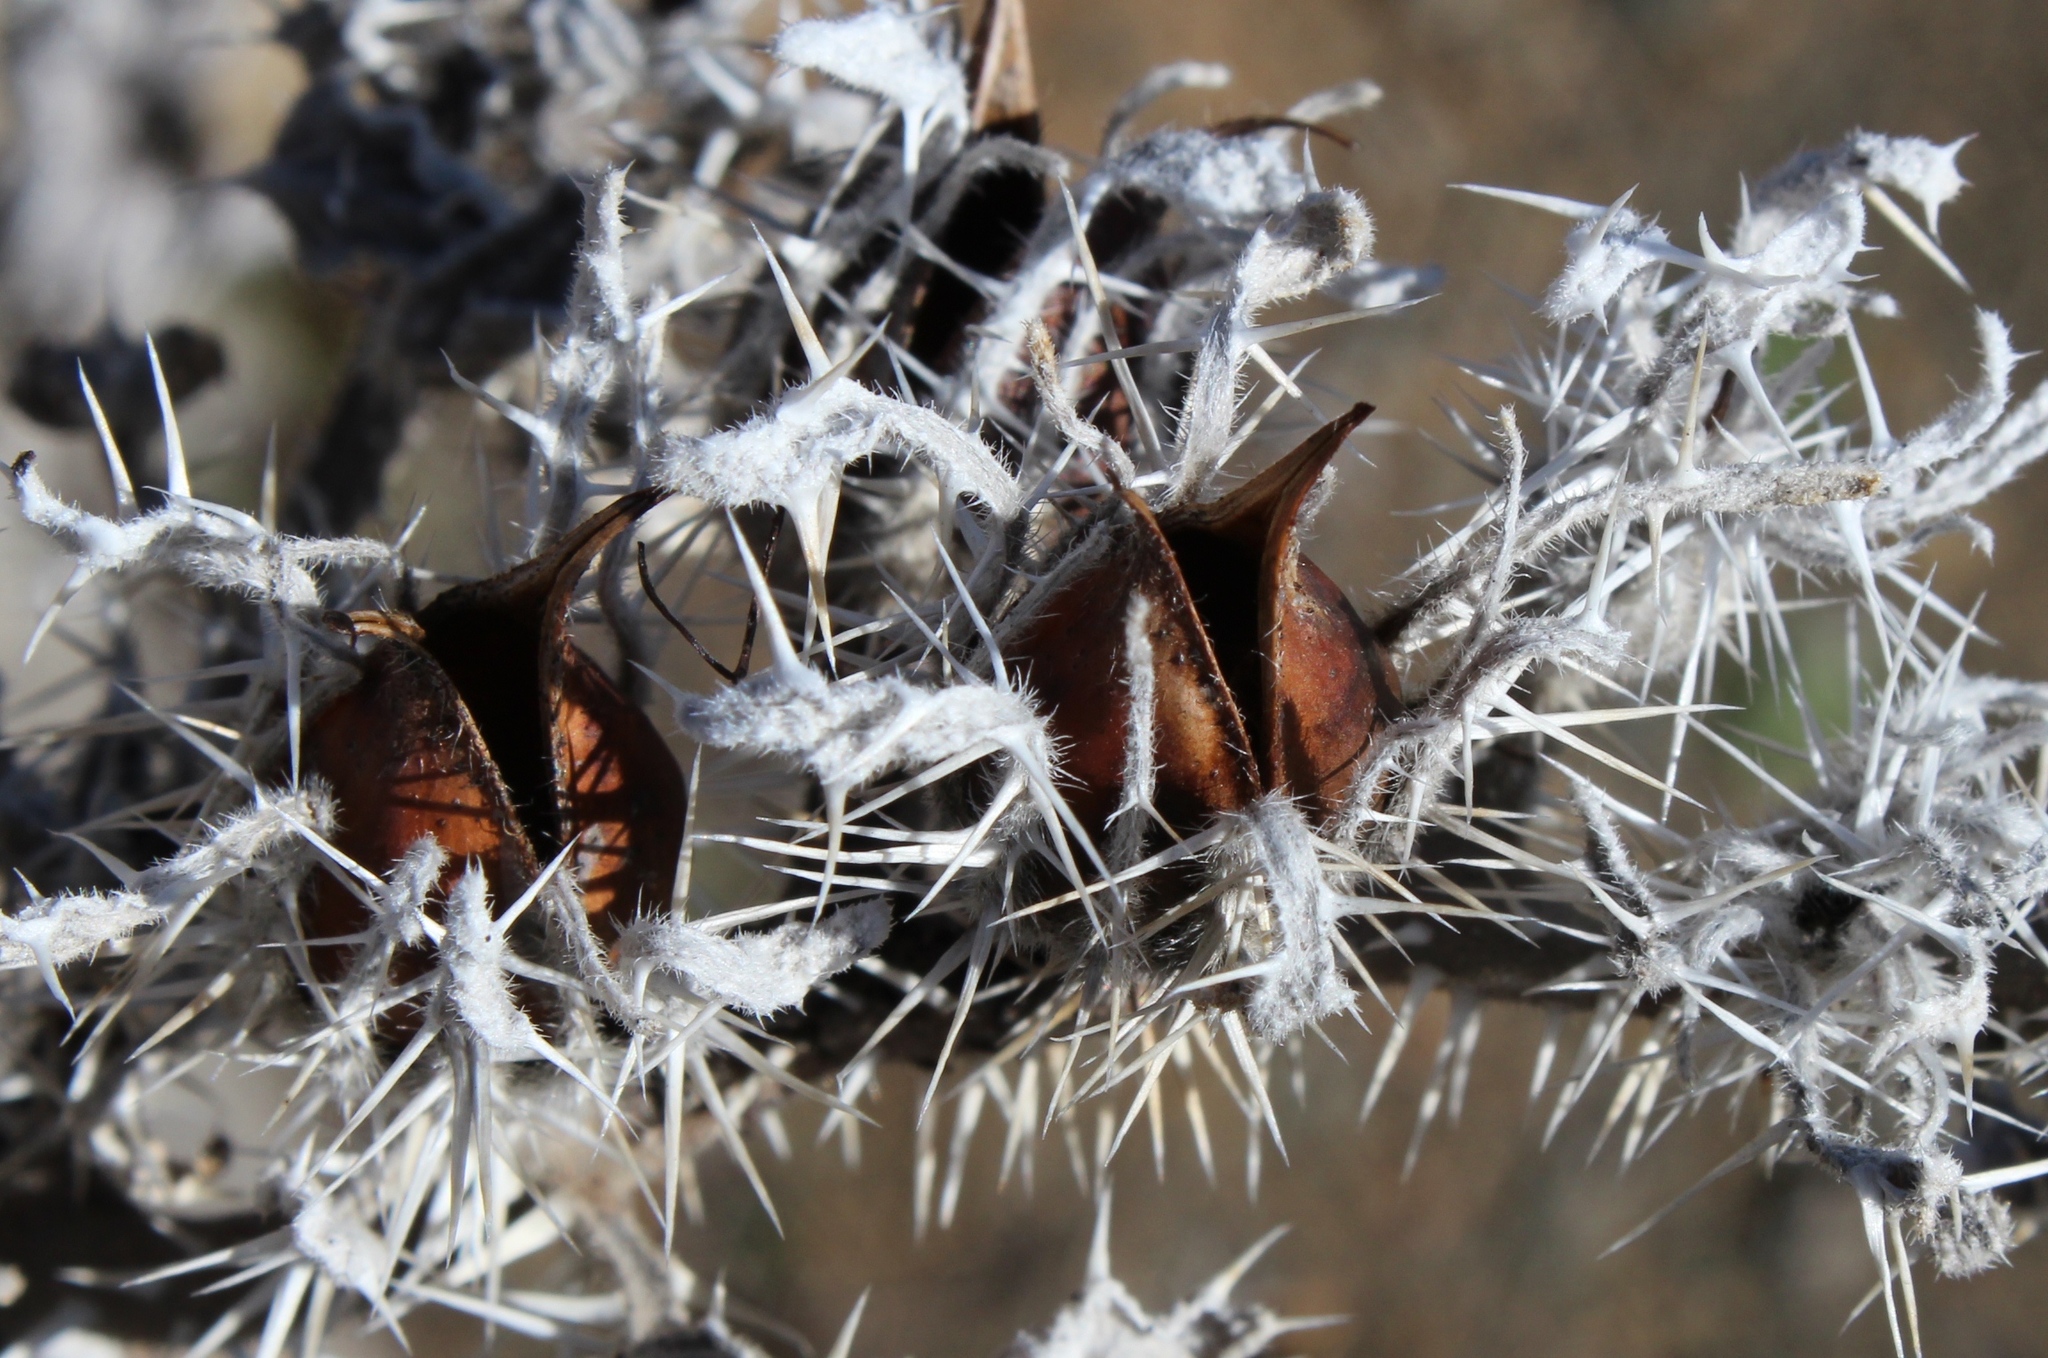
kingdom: Plantae
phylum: Tracheophyta
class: Magnoliopsida
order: Boraginales
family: Boraginaceae
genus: Codon
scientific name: Codon royenii
